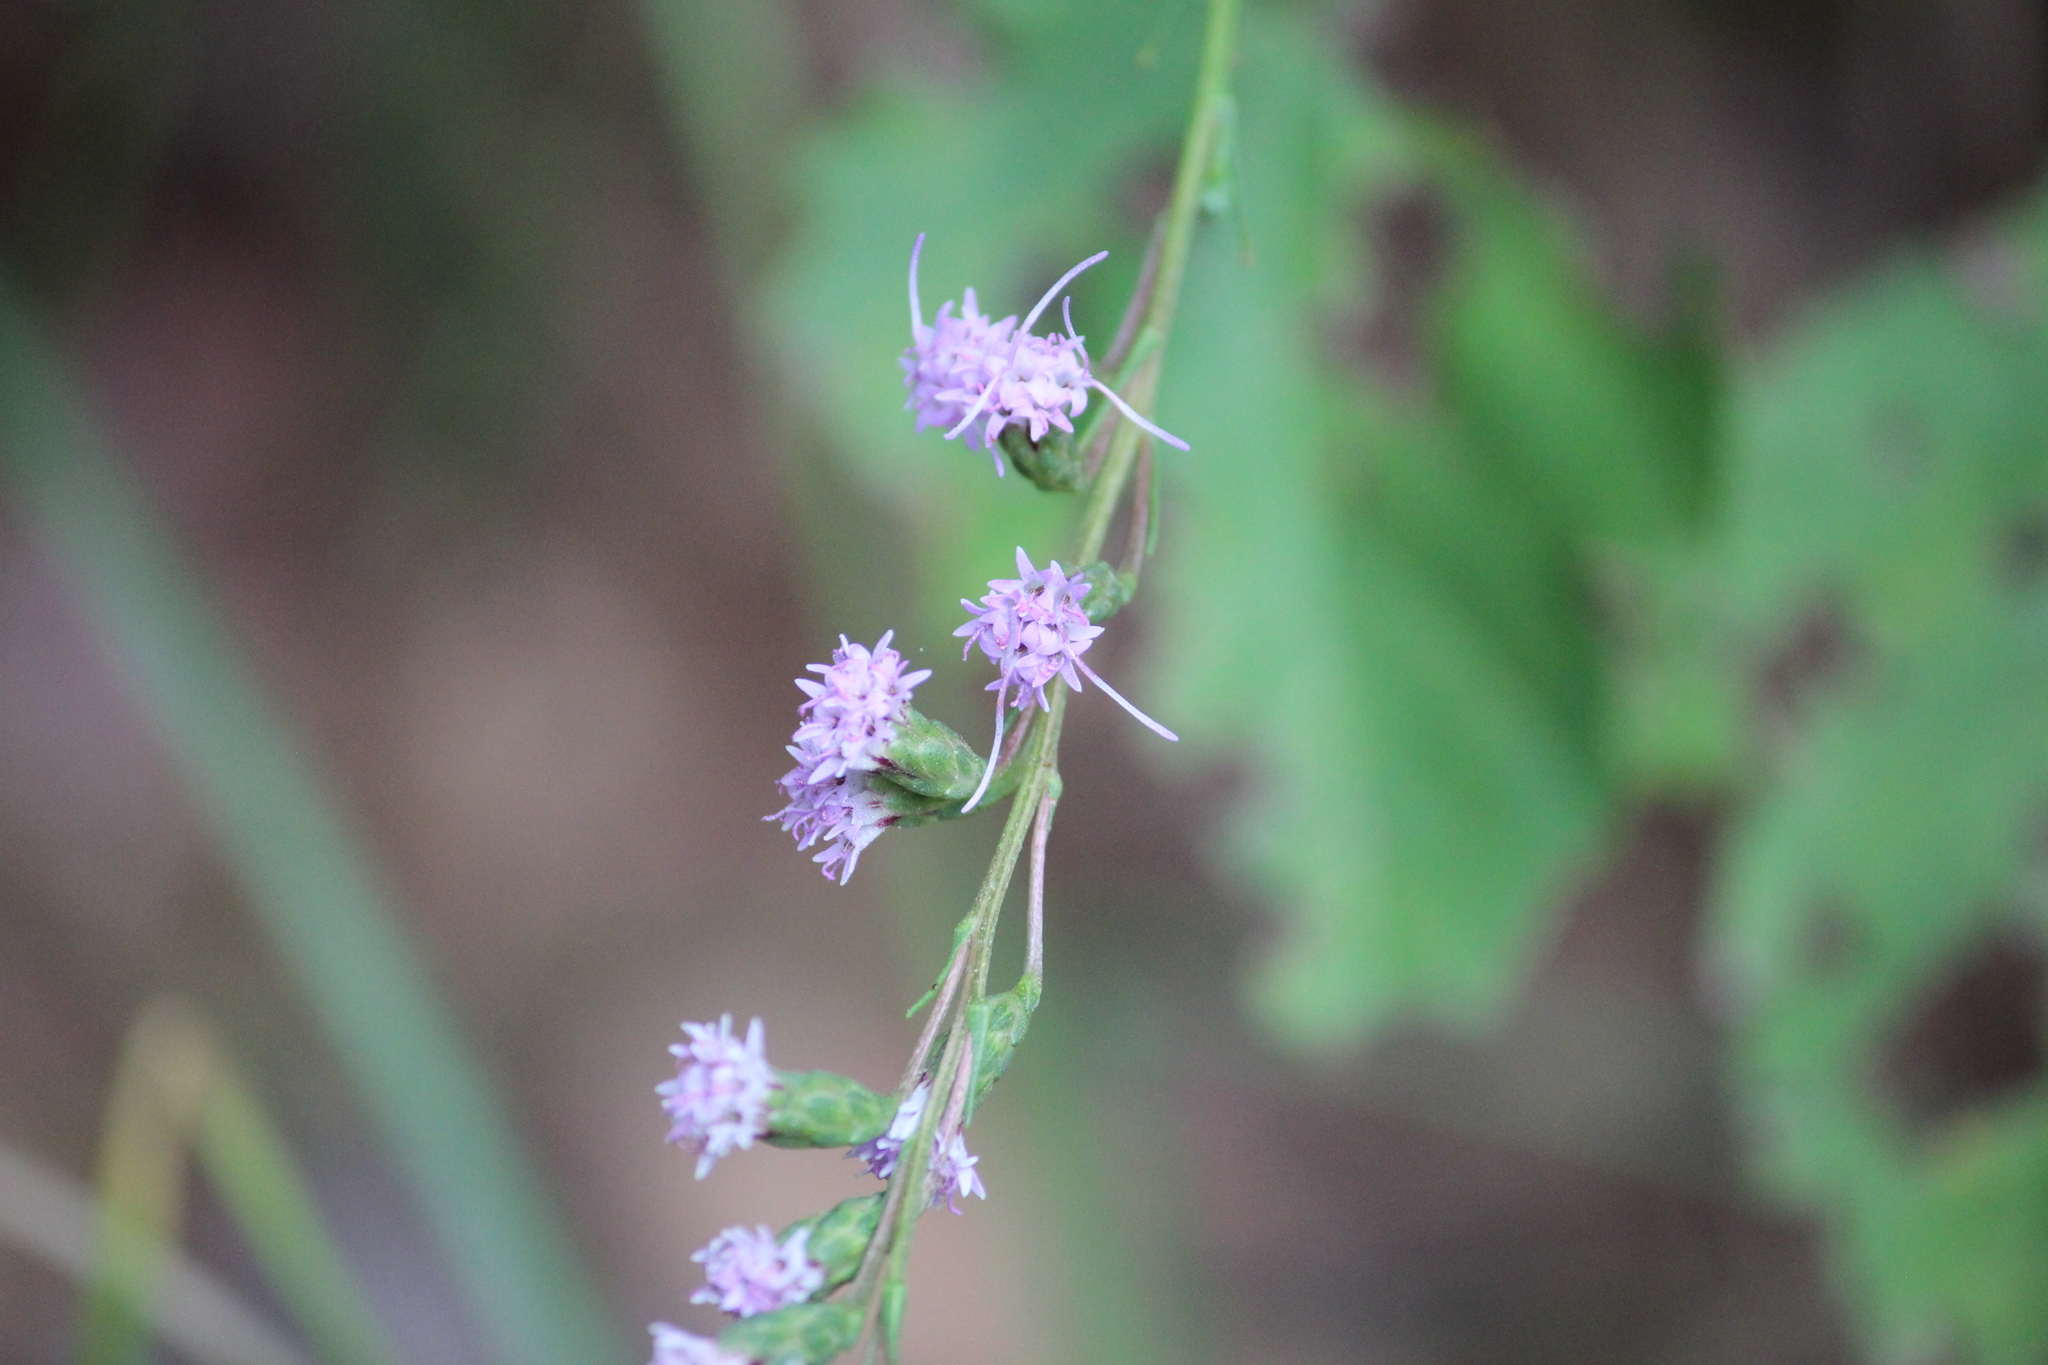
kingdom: Plantae
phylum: Tracheophyta
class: Magnoliopsida
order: Asterales
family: Asteraceae
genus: Liatris
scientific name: Liatris pilosa
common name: Grass-leaf gayfeather
